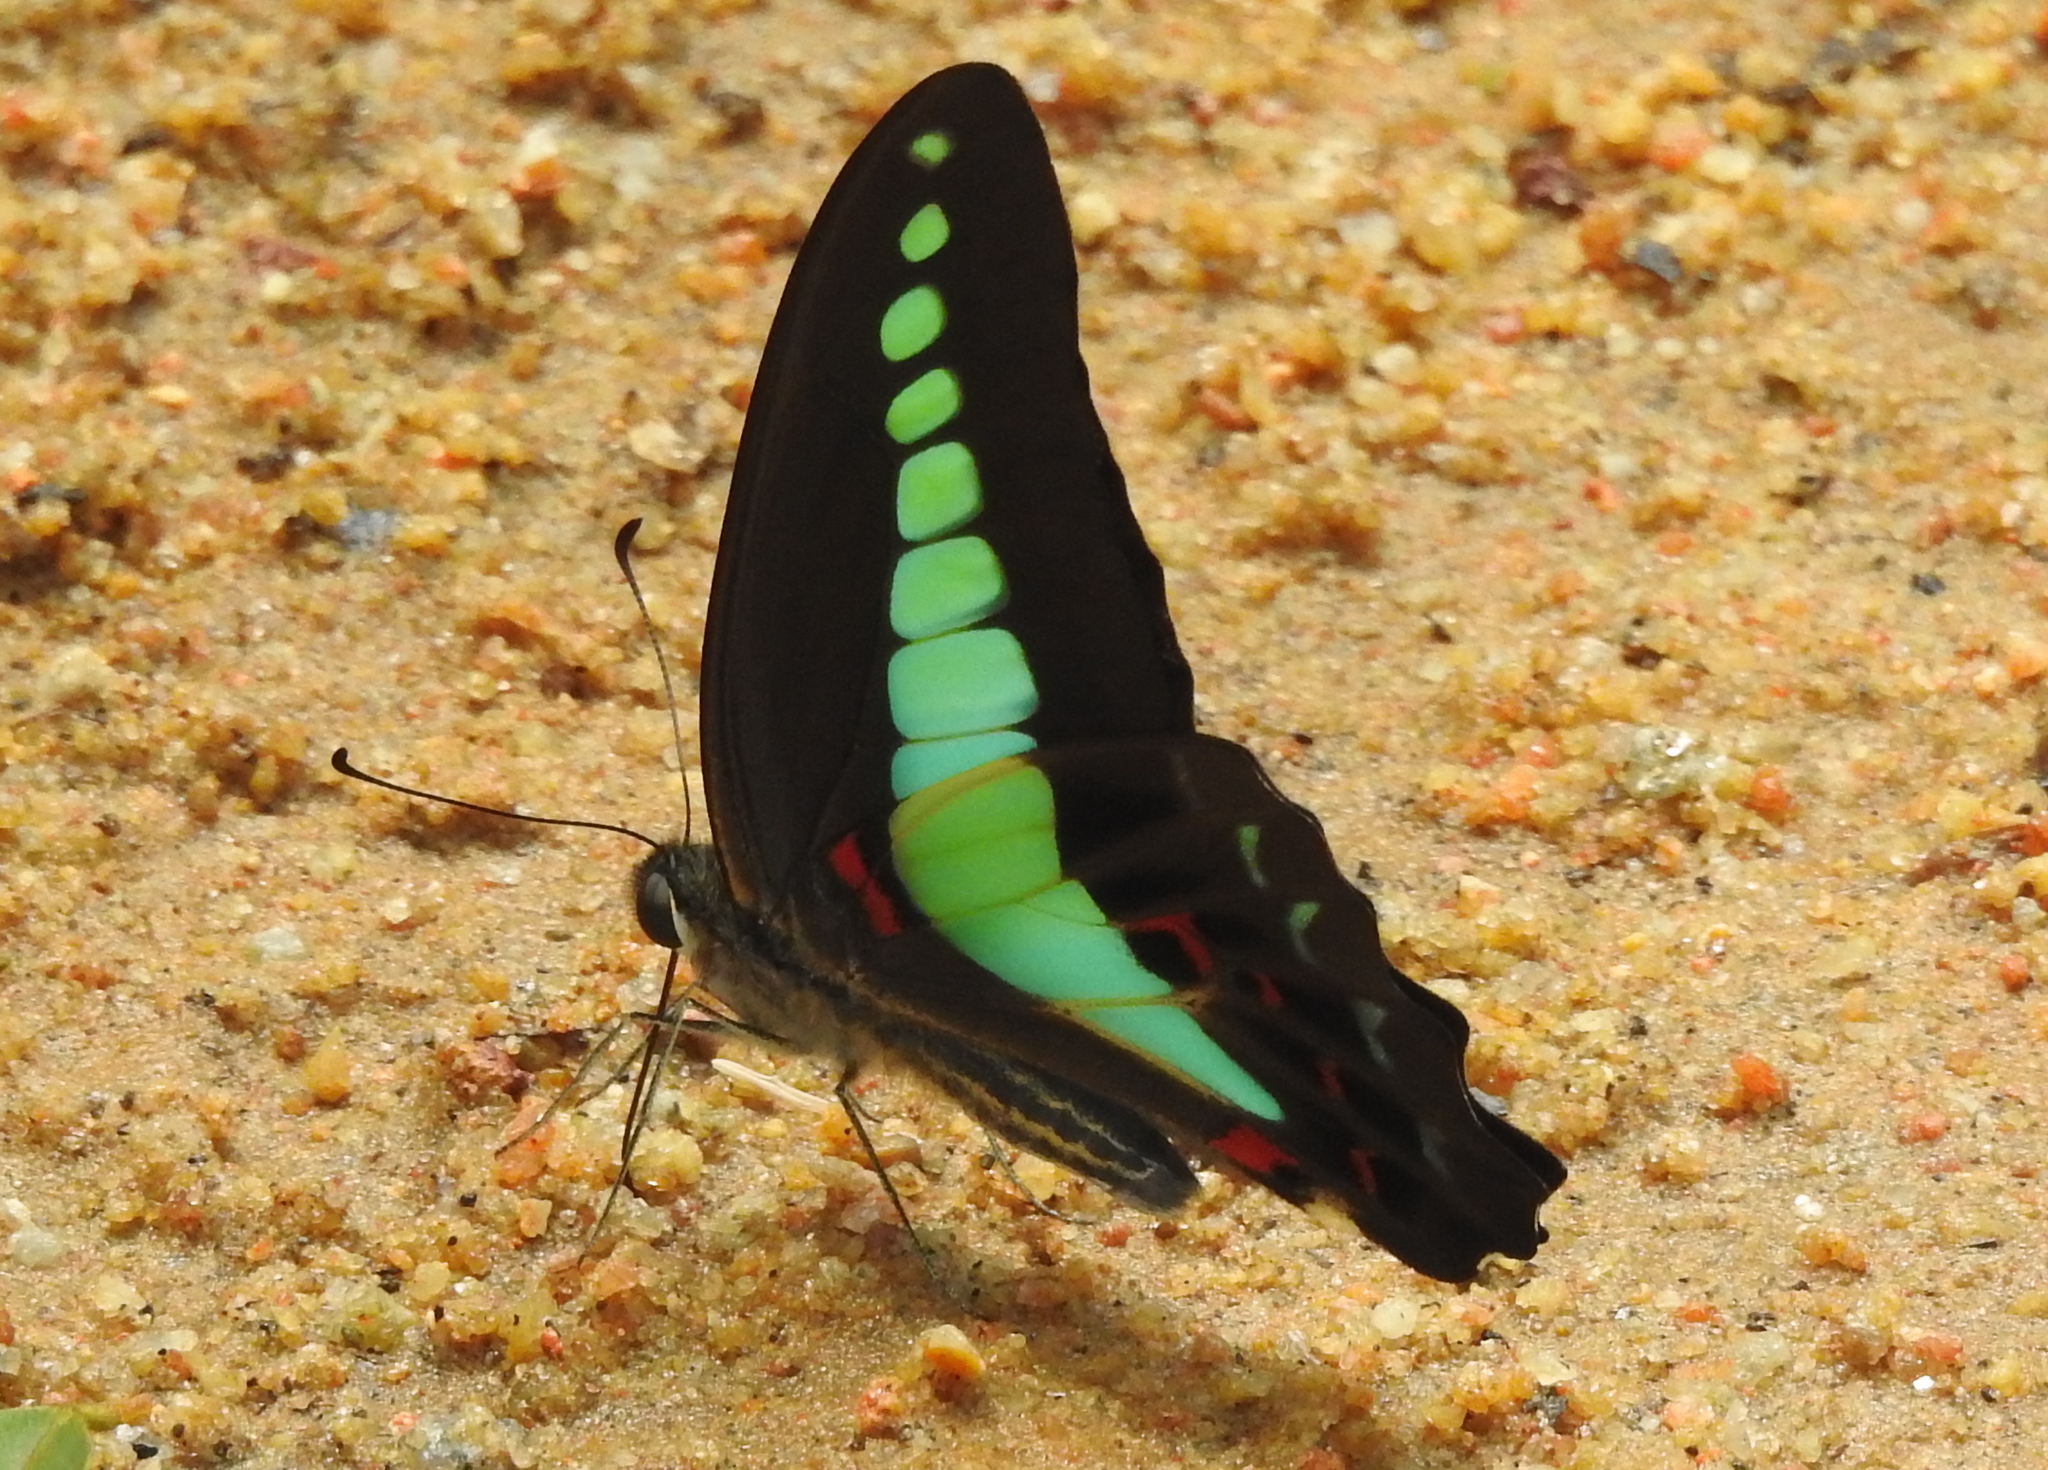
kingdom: Fungi
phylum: Ascomycota
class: Sordariomycetes
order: Microascales
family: Microascaceae
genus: Graphium
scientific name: Graphium sarpedon
